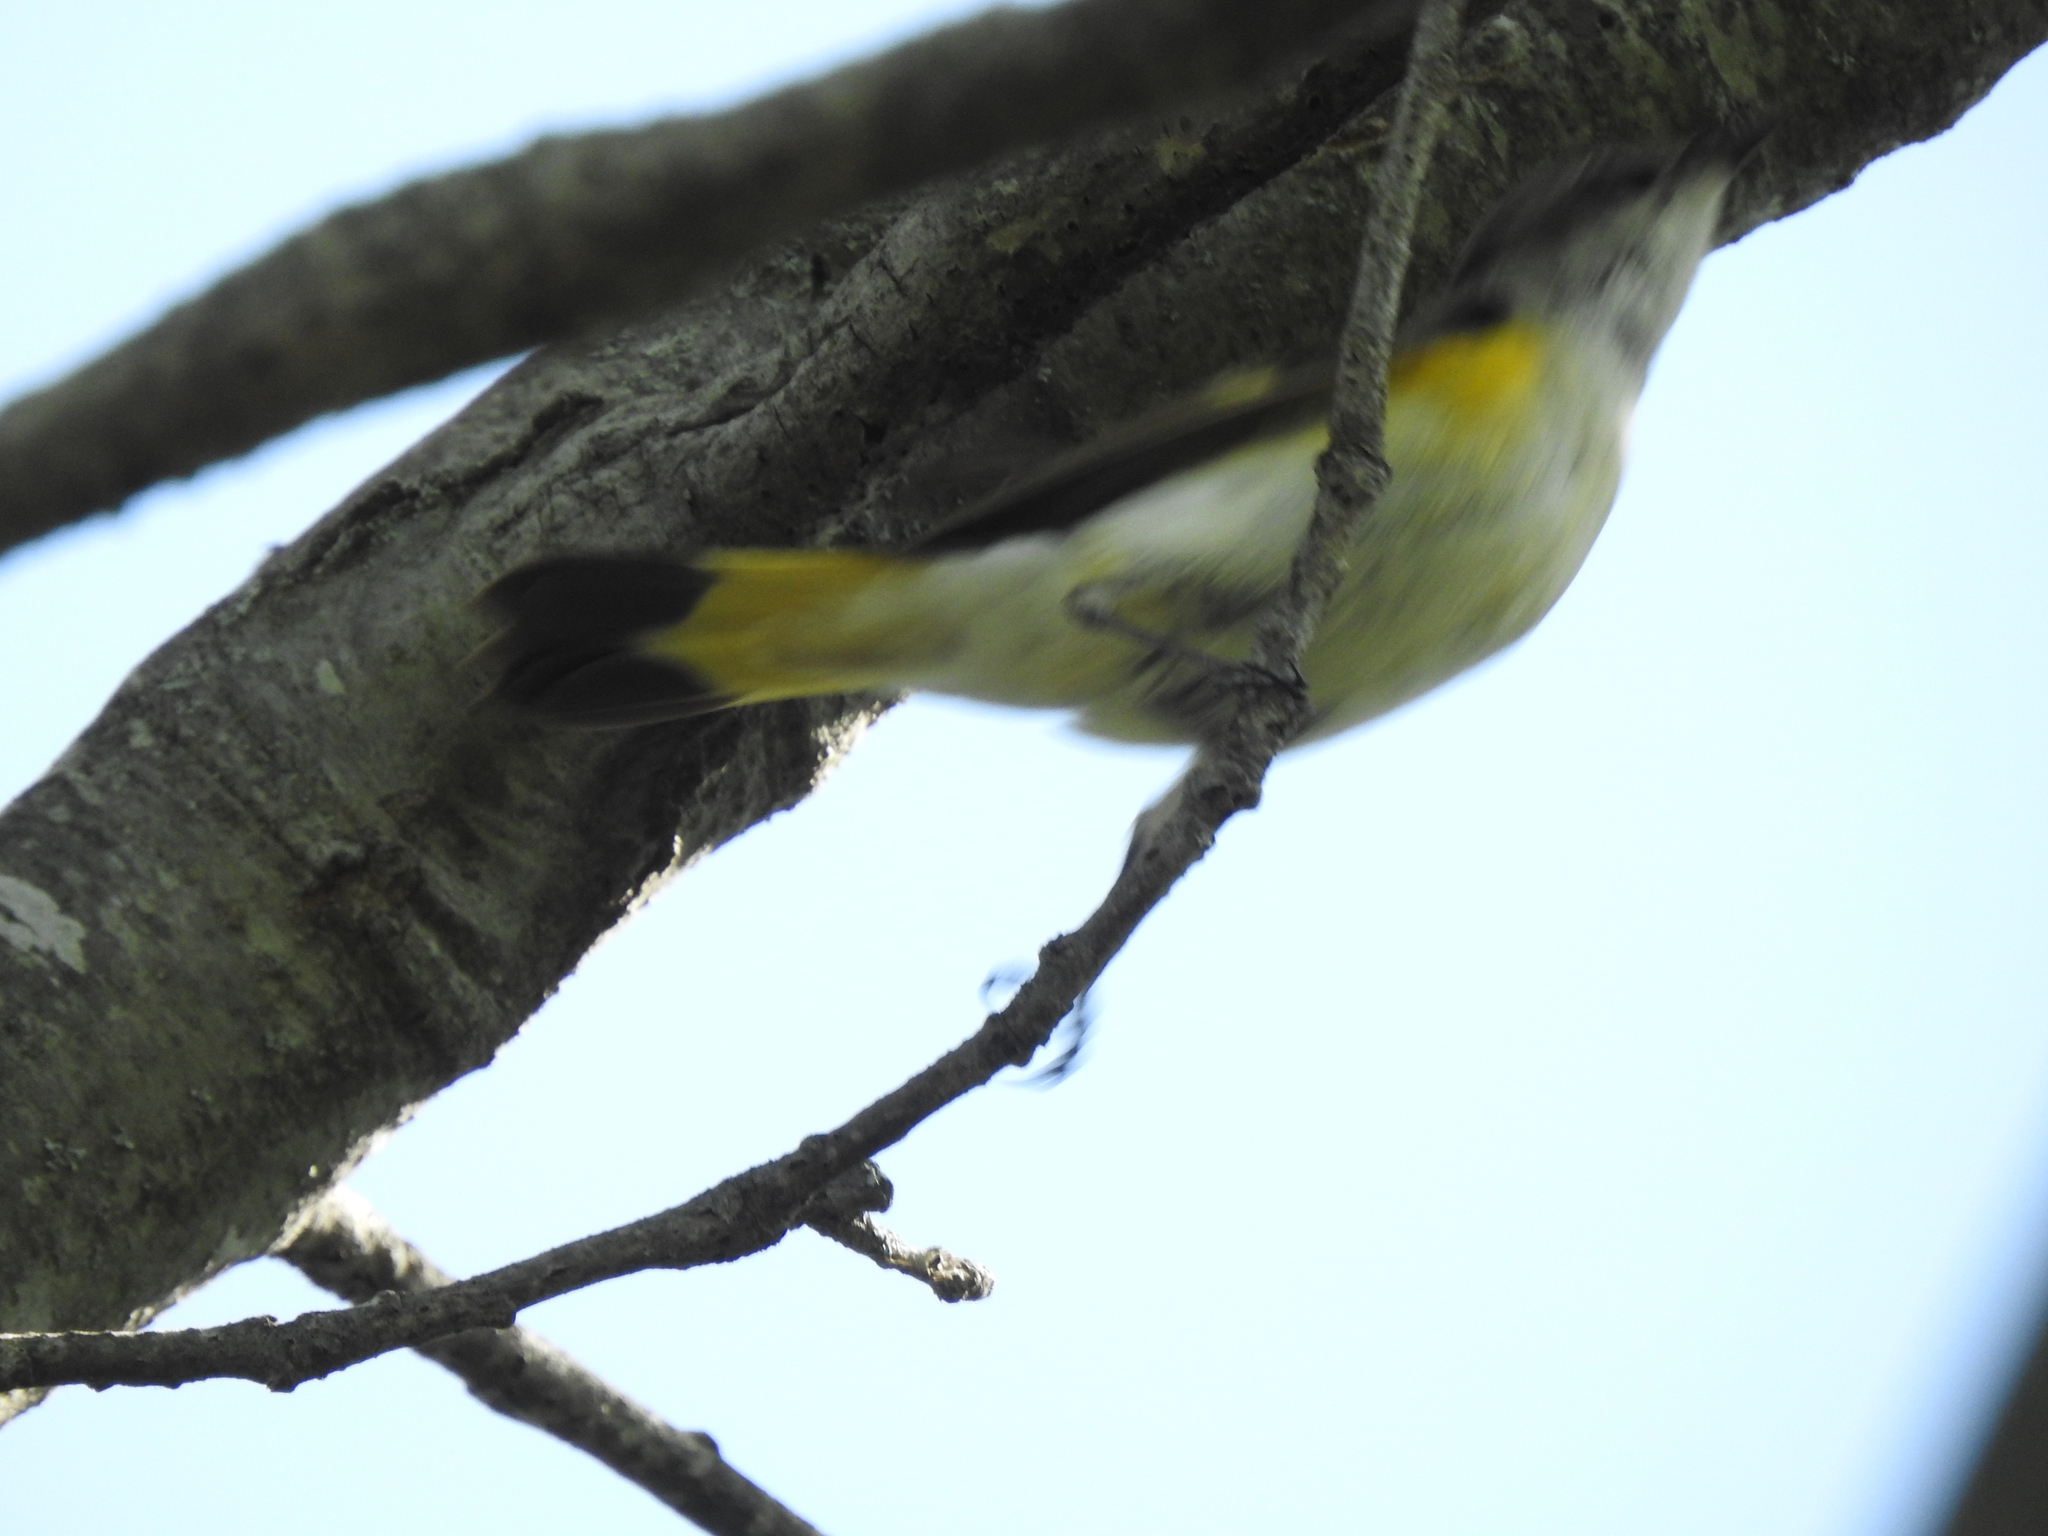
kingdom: Animalia
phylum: Chordata
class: Aves
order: Passeriformes
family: Parulidae
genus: Setophaga
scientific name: Setophaga ruticilla
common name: American redstart
